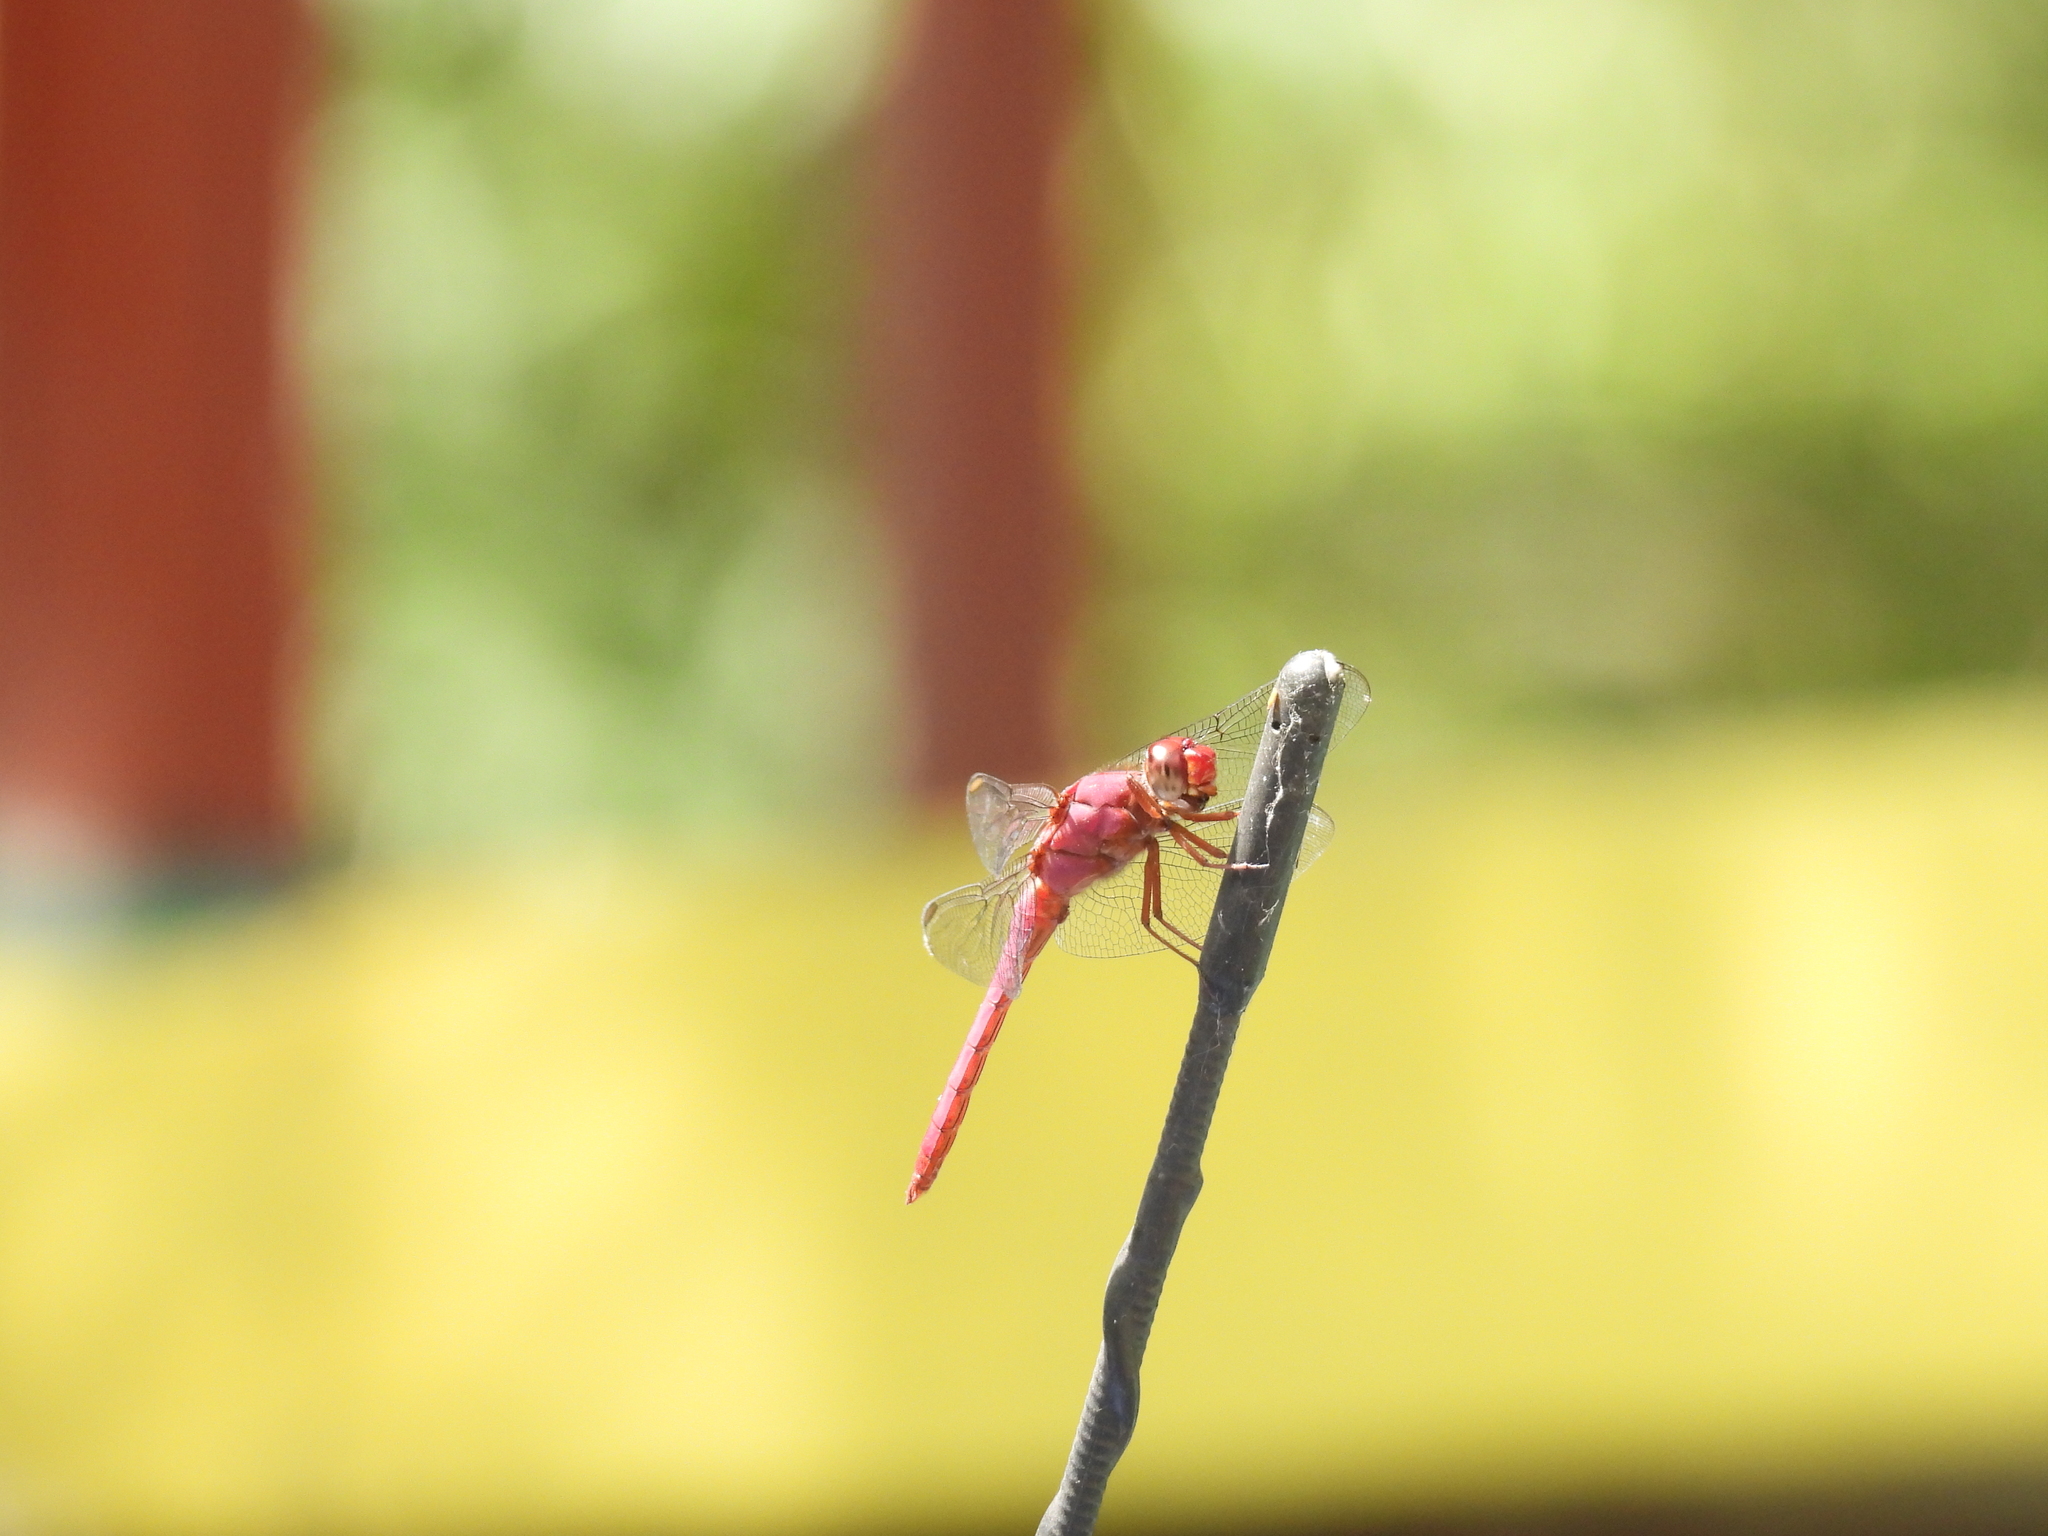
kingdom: Animalia
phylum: Arthropoda
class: Insecta
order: Odonata
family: Libellulidae
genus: Orthemis
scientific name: Orthemis discolor
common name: Carmine skimmer
